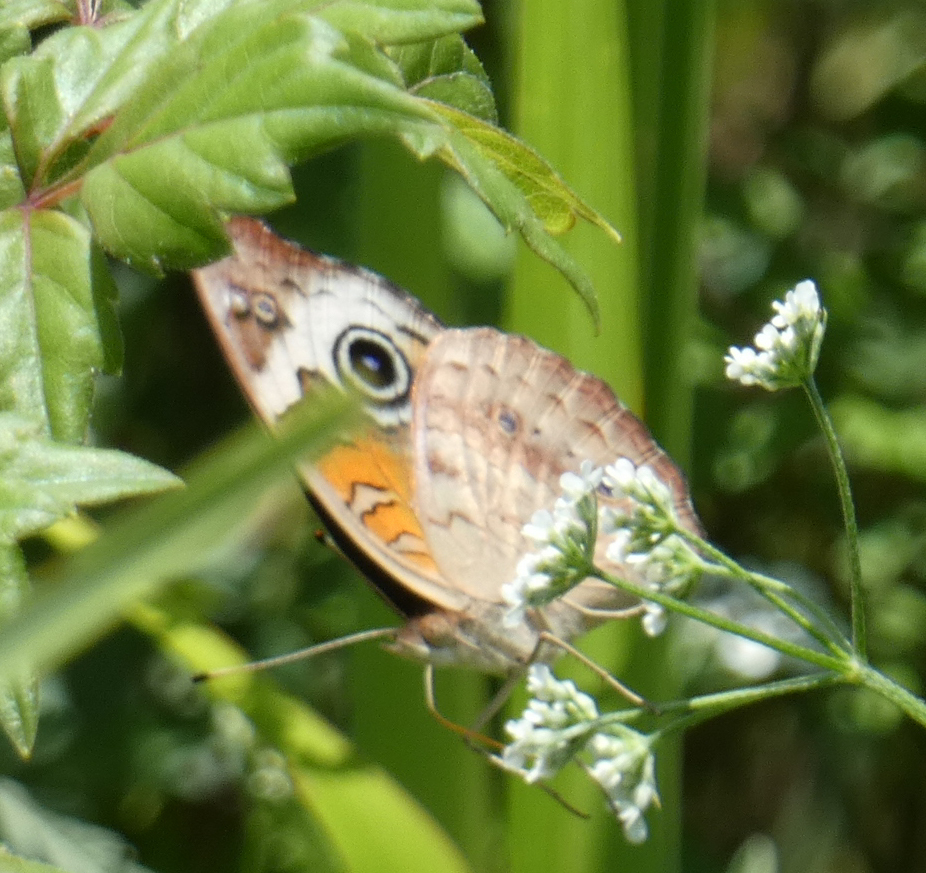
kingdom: Animalia
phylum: Arthropoda
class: Insecta
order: Lepidoptera
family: Nymphalidae
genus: Junonia
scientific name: Junonia coenia
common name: Common buckeye
